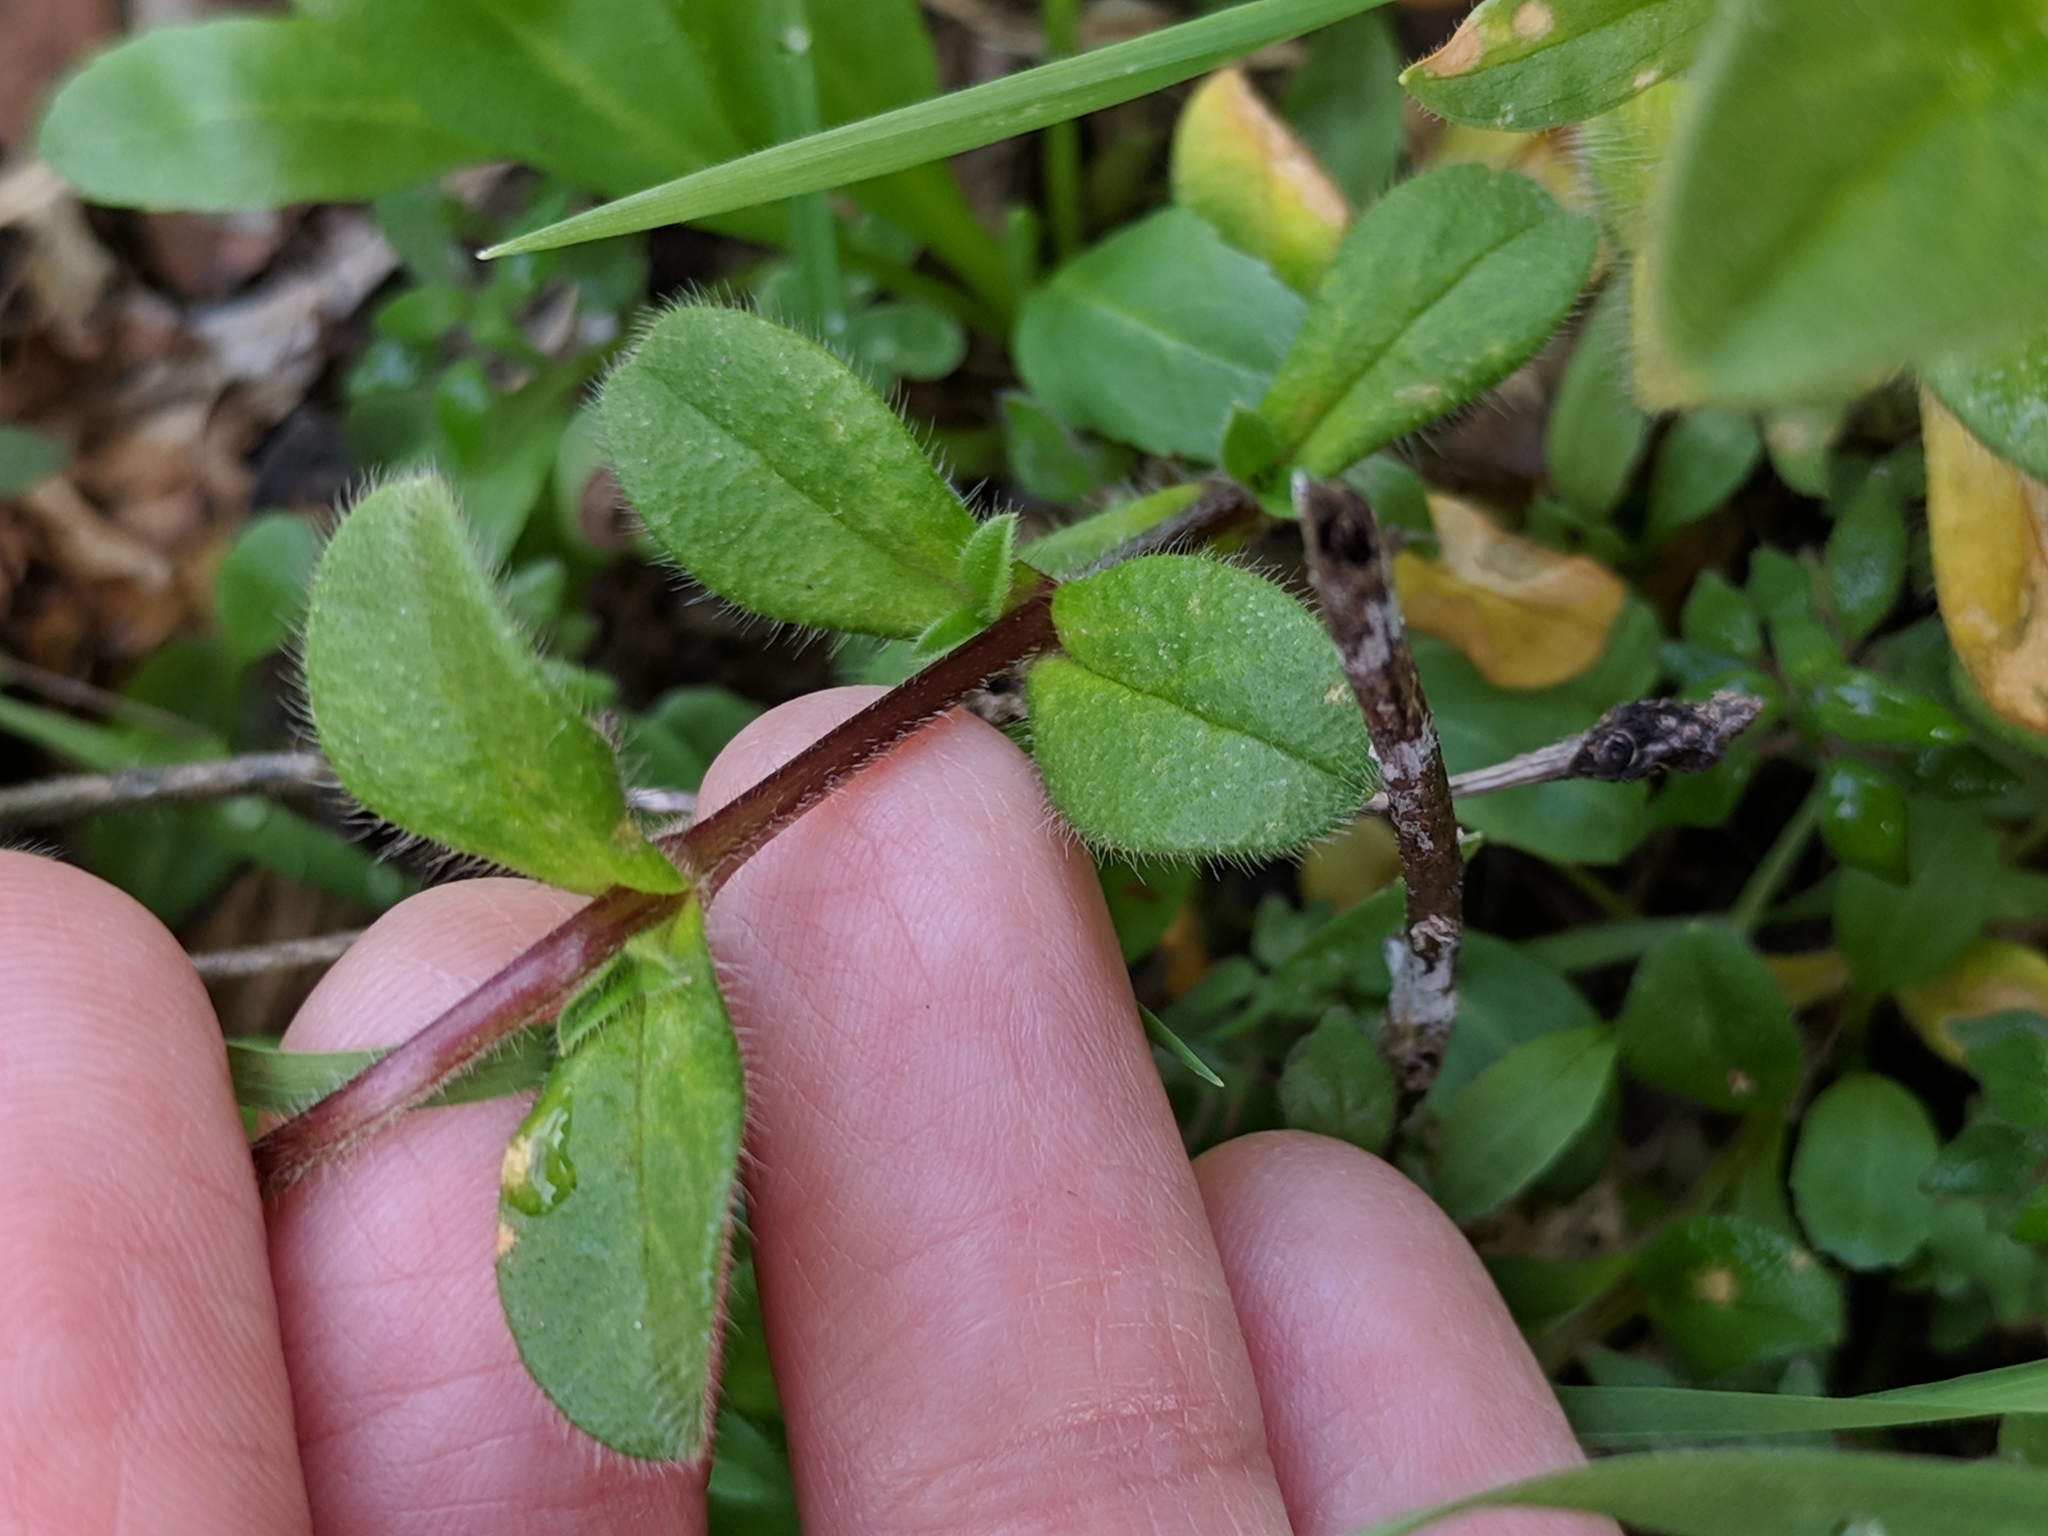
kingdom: Plantae
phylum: Tracheophyta
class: Magnoliopsida
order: Caryophyllales
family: Caryophyllaceae
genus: Cerastium
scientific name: Cerastium glomeratum
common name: Sticky chickweed
